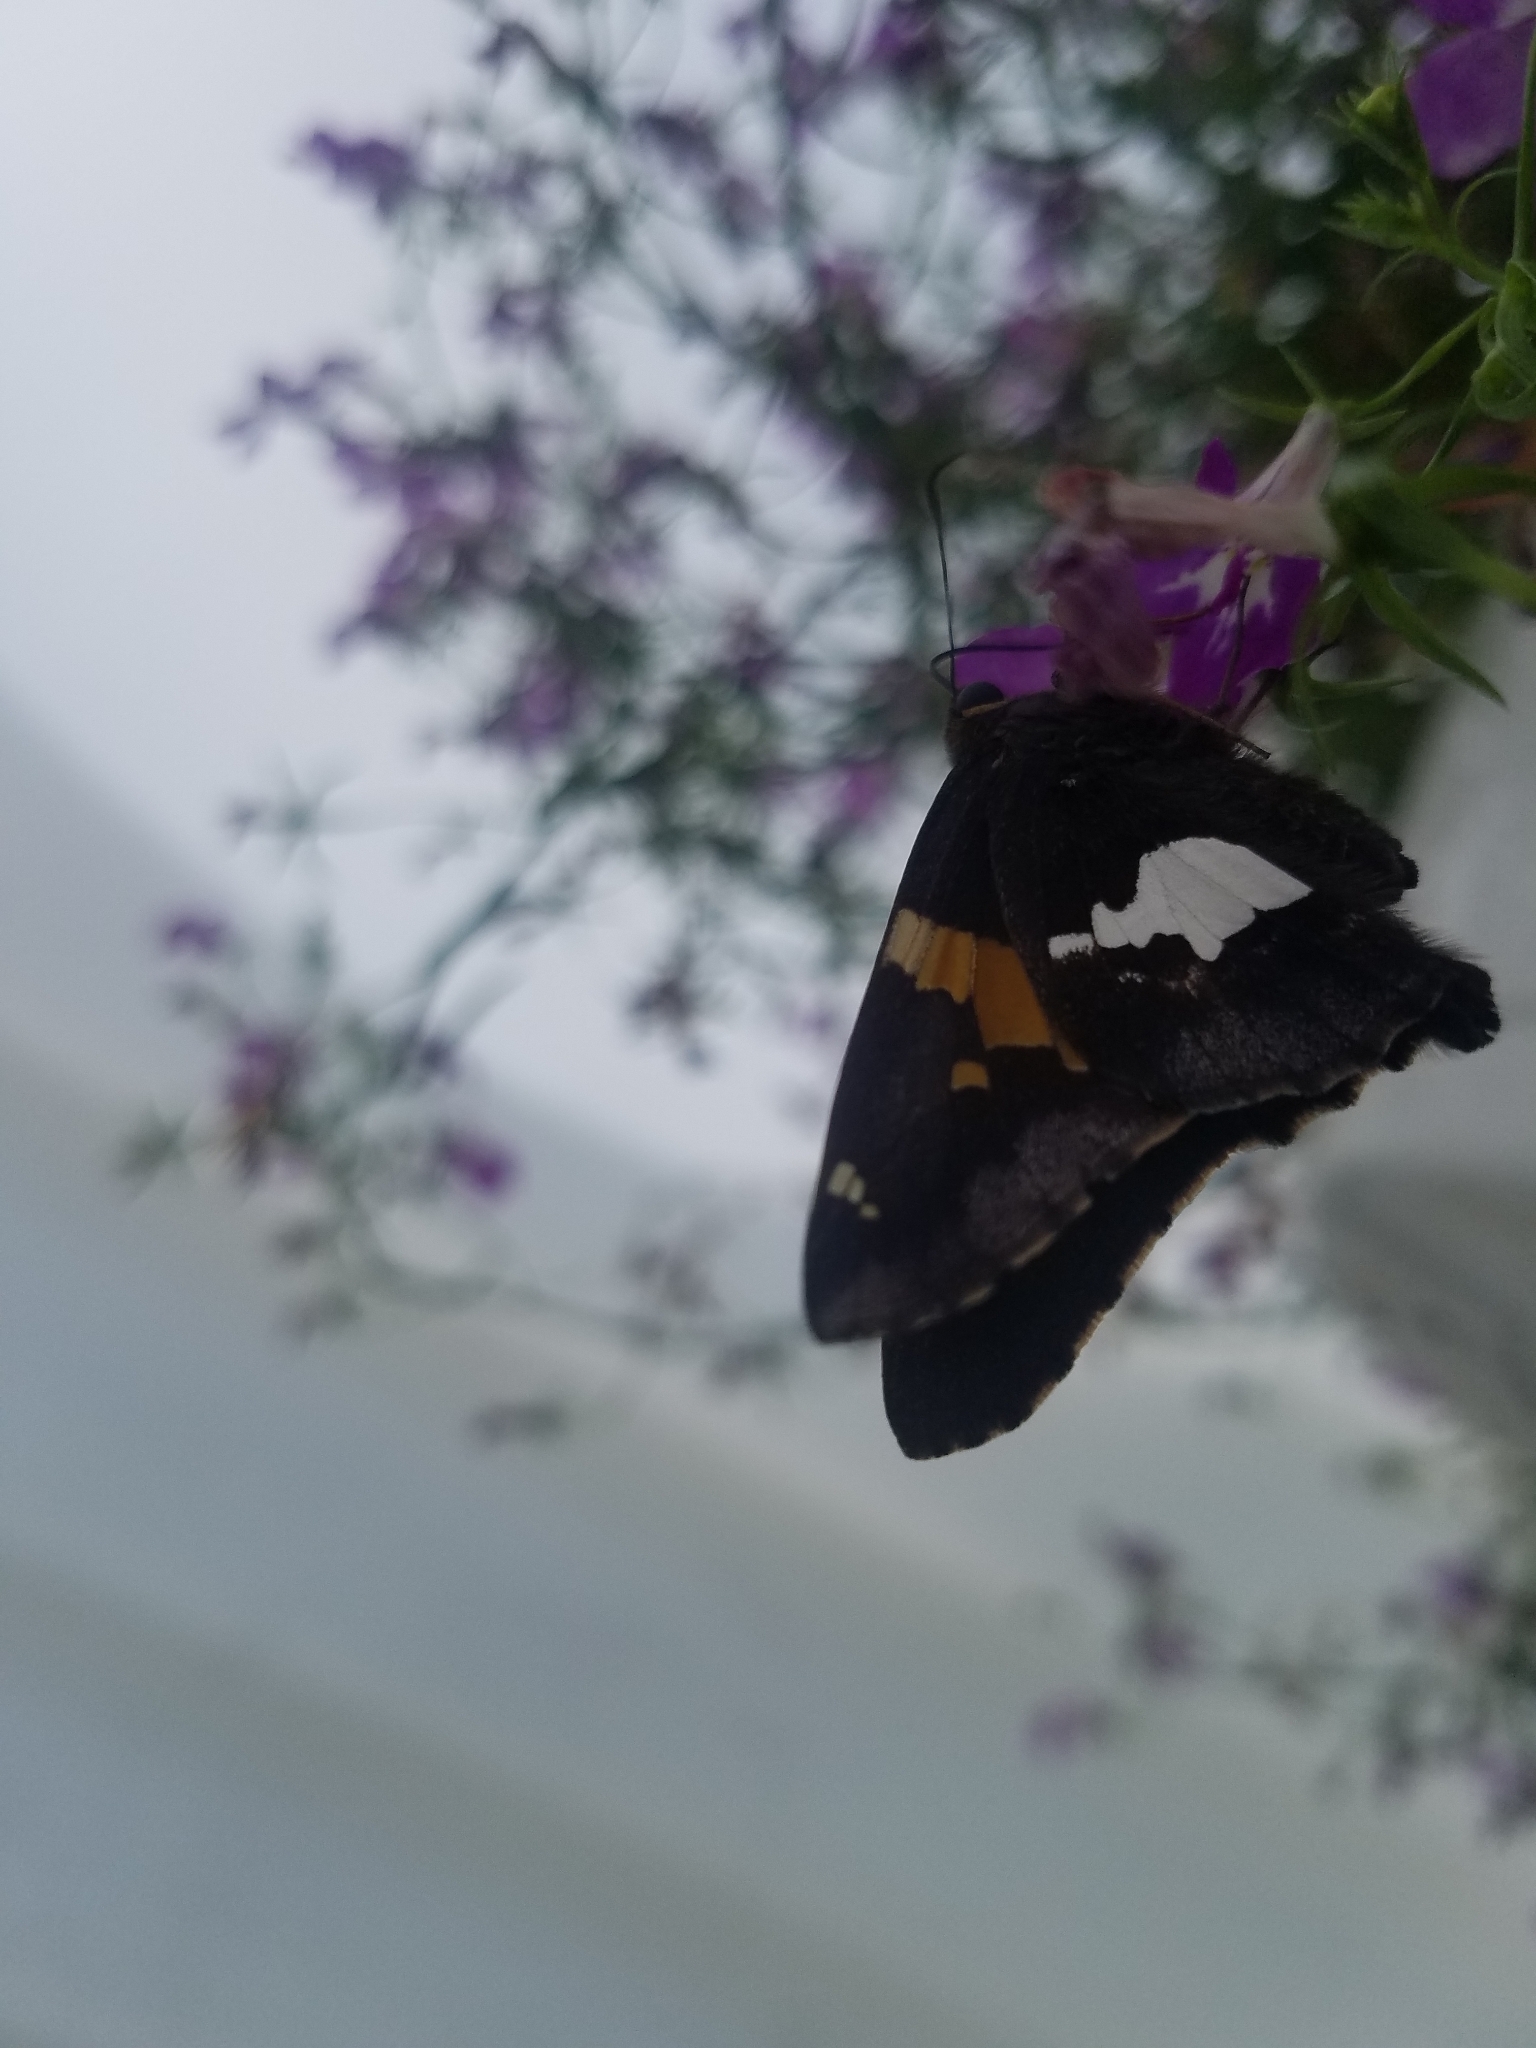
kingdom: Animalia
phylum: Arthropoda
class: Insecta
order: Lepidoptera
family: Hesperiidae
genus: Epargyreus
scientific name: Epargyreus clarus
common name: Silver-spotted skipper
